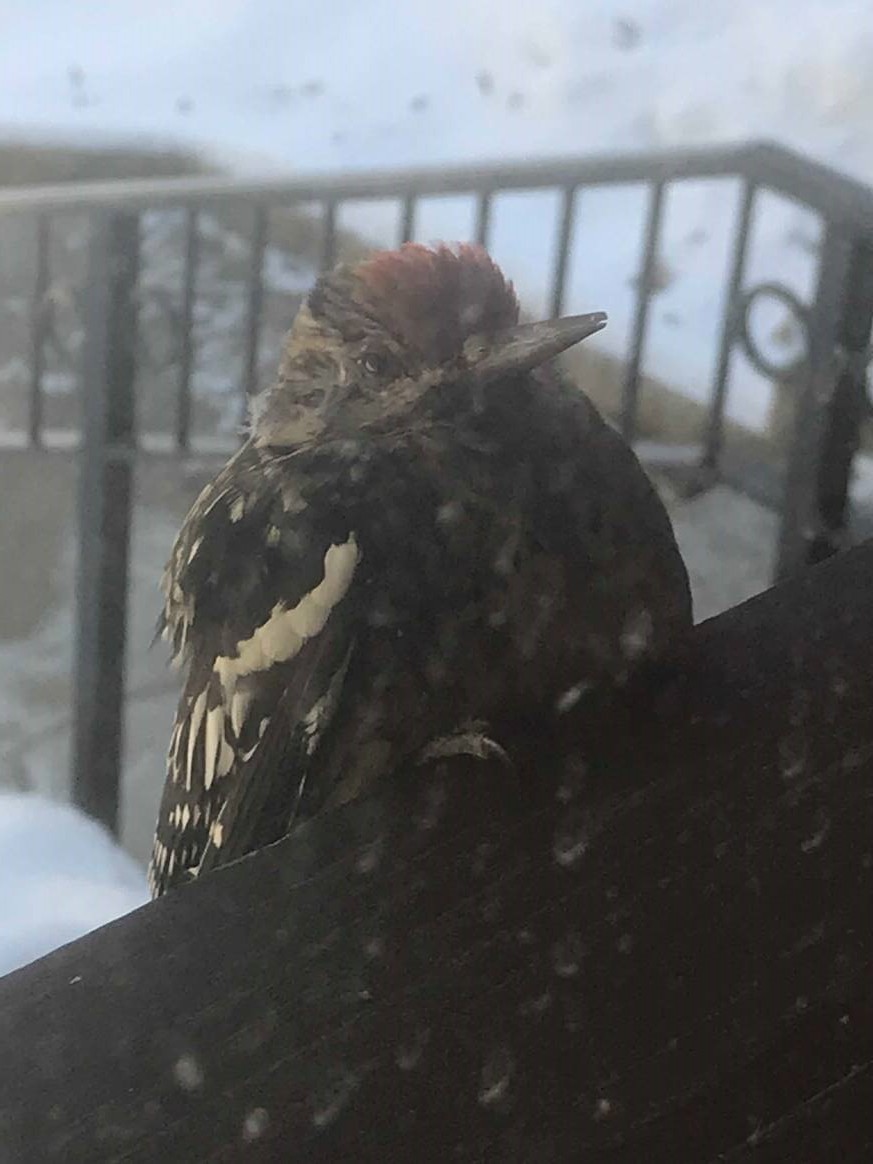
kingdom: Animalia
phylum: Chordata
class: Aves
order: Piciformes
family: Picidae
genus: Sphyrapicus
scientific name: Sphyrapicus varius
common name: Yellow-bellied sapsucker
